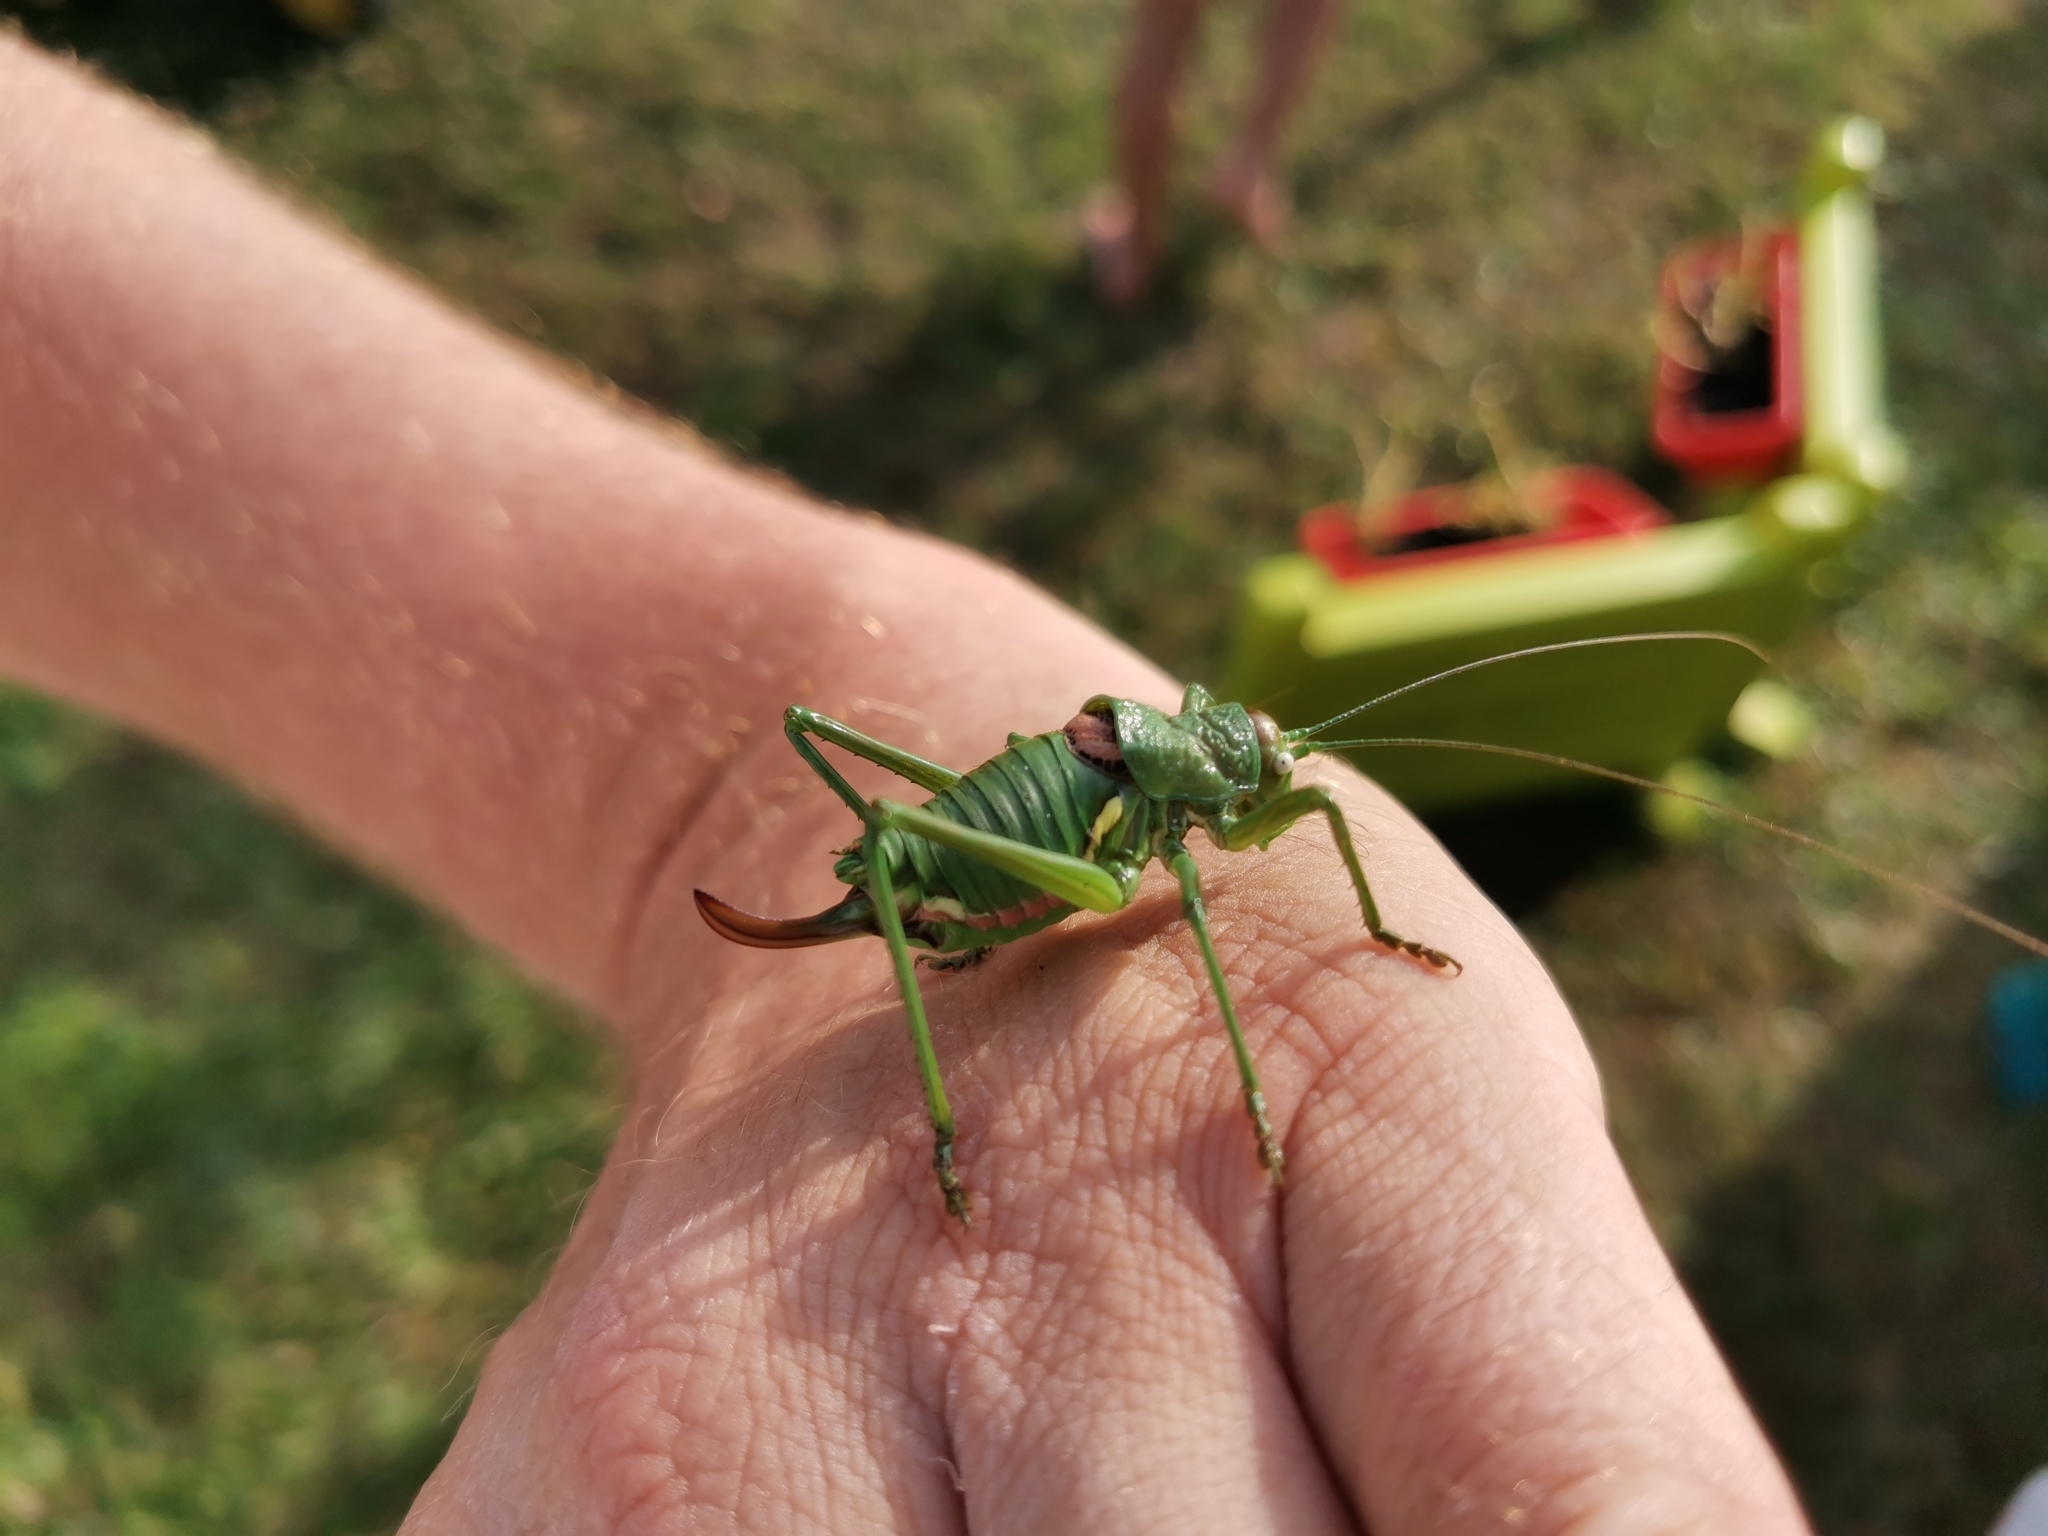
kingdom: Animalia
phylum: Arthropoda
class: Insecta
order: Orthoptera
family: Tettigoniidae
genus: Uromenus
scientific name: Uromenus rugosicollis
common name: Rough saddle bush-cricket
